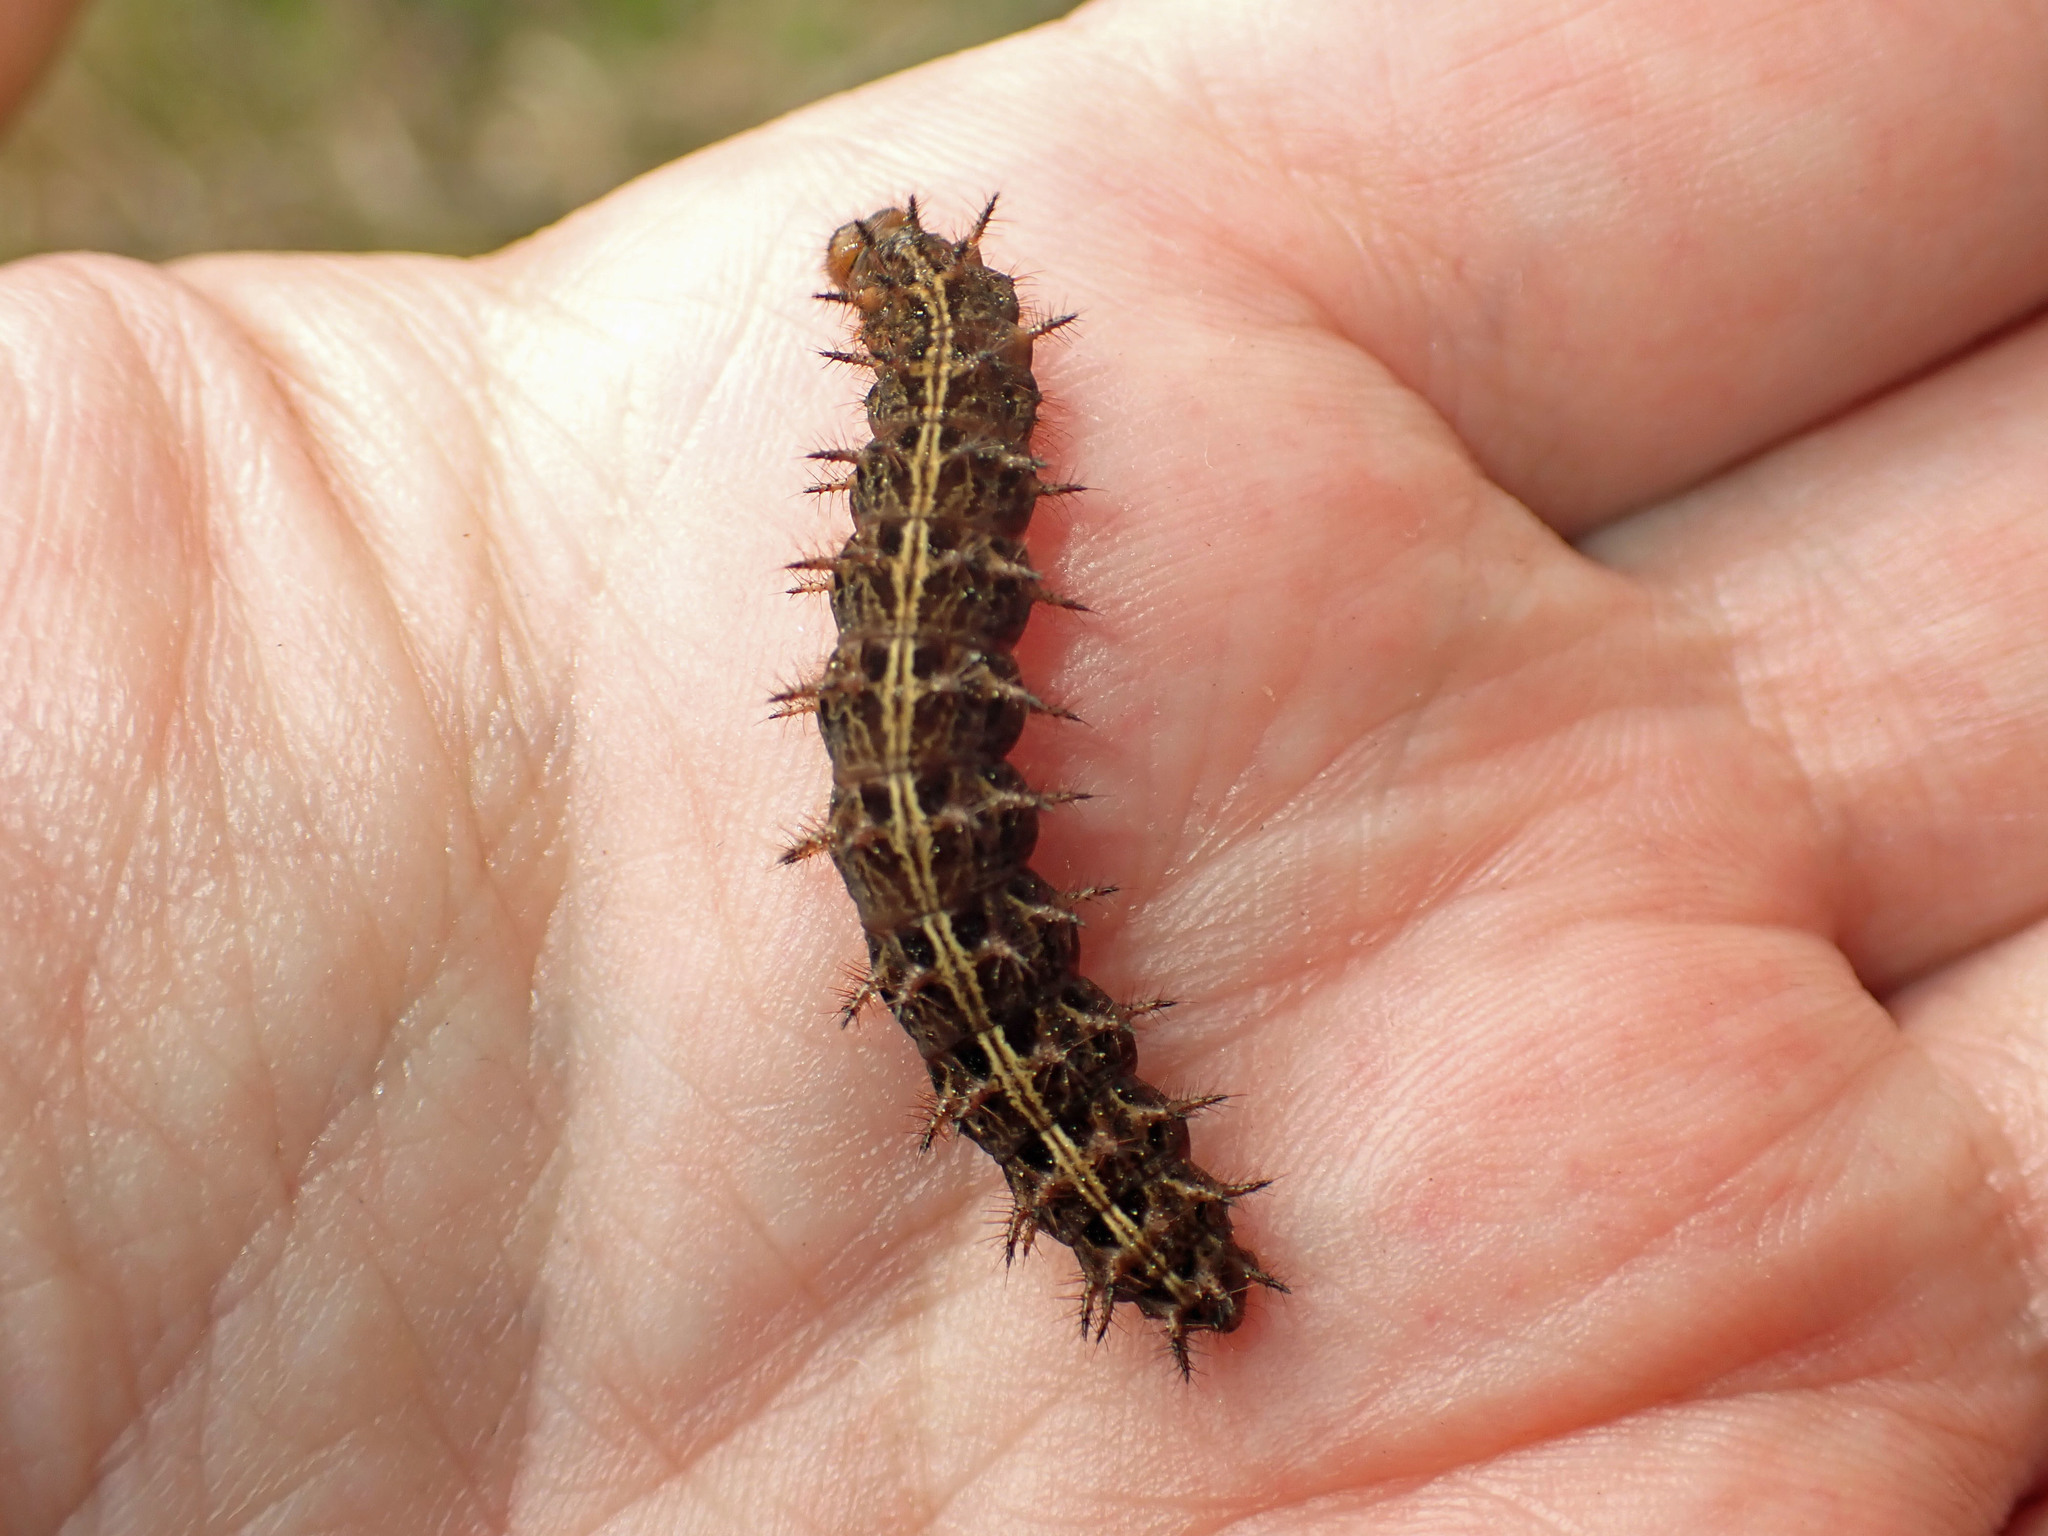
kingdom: Animalia
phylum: Arthropoda
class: Insecta
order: Lepidoptera
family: Nymphalidae
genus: Speyeria
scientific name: Speyeria atlantis
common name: Atlantis fritillary
